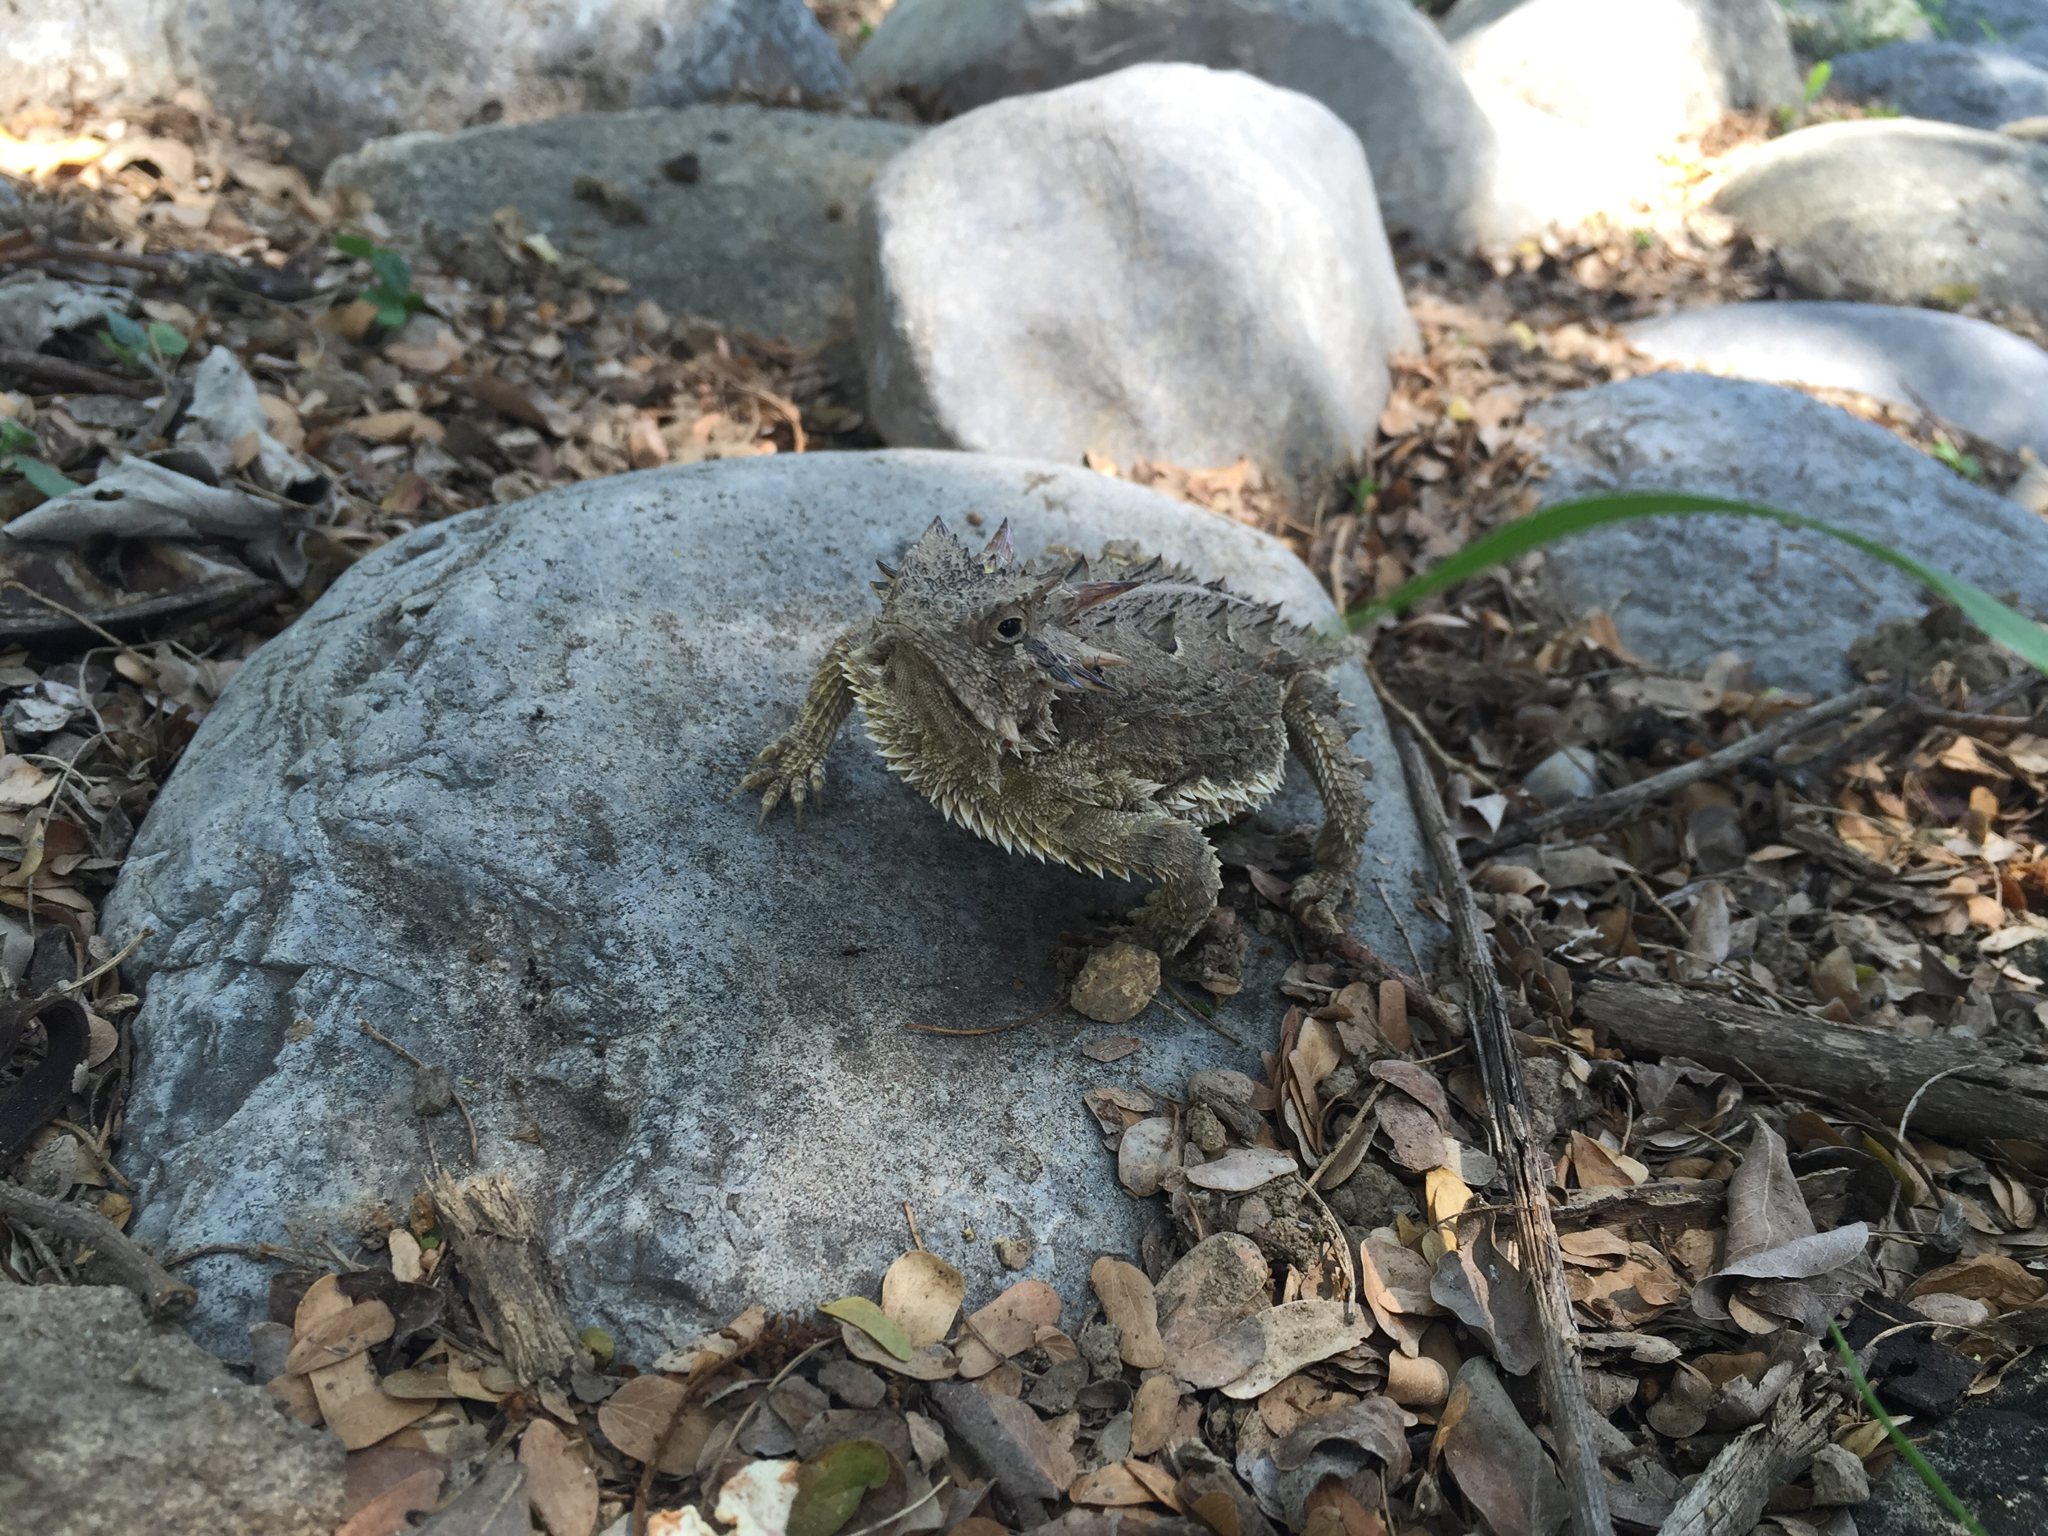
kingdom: Animalia
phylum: Chordata
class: Squamata
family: Phrynosomatidae
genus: Phrynosoma
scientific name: Phrynosoma cornutum
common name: Texas horned lizard
